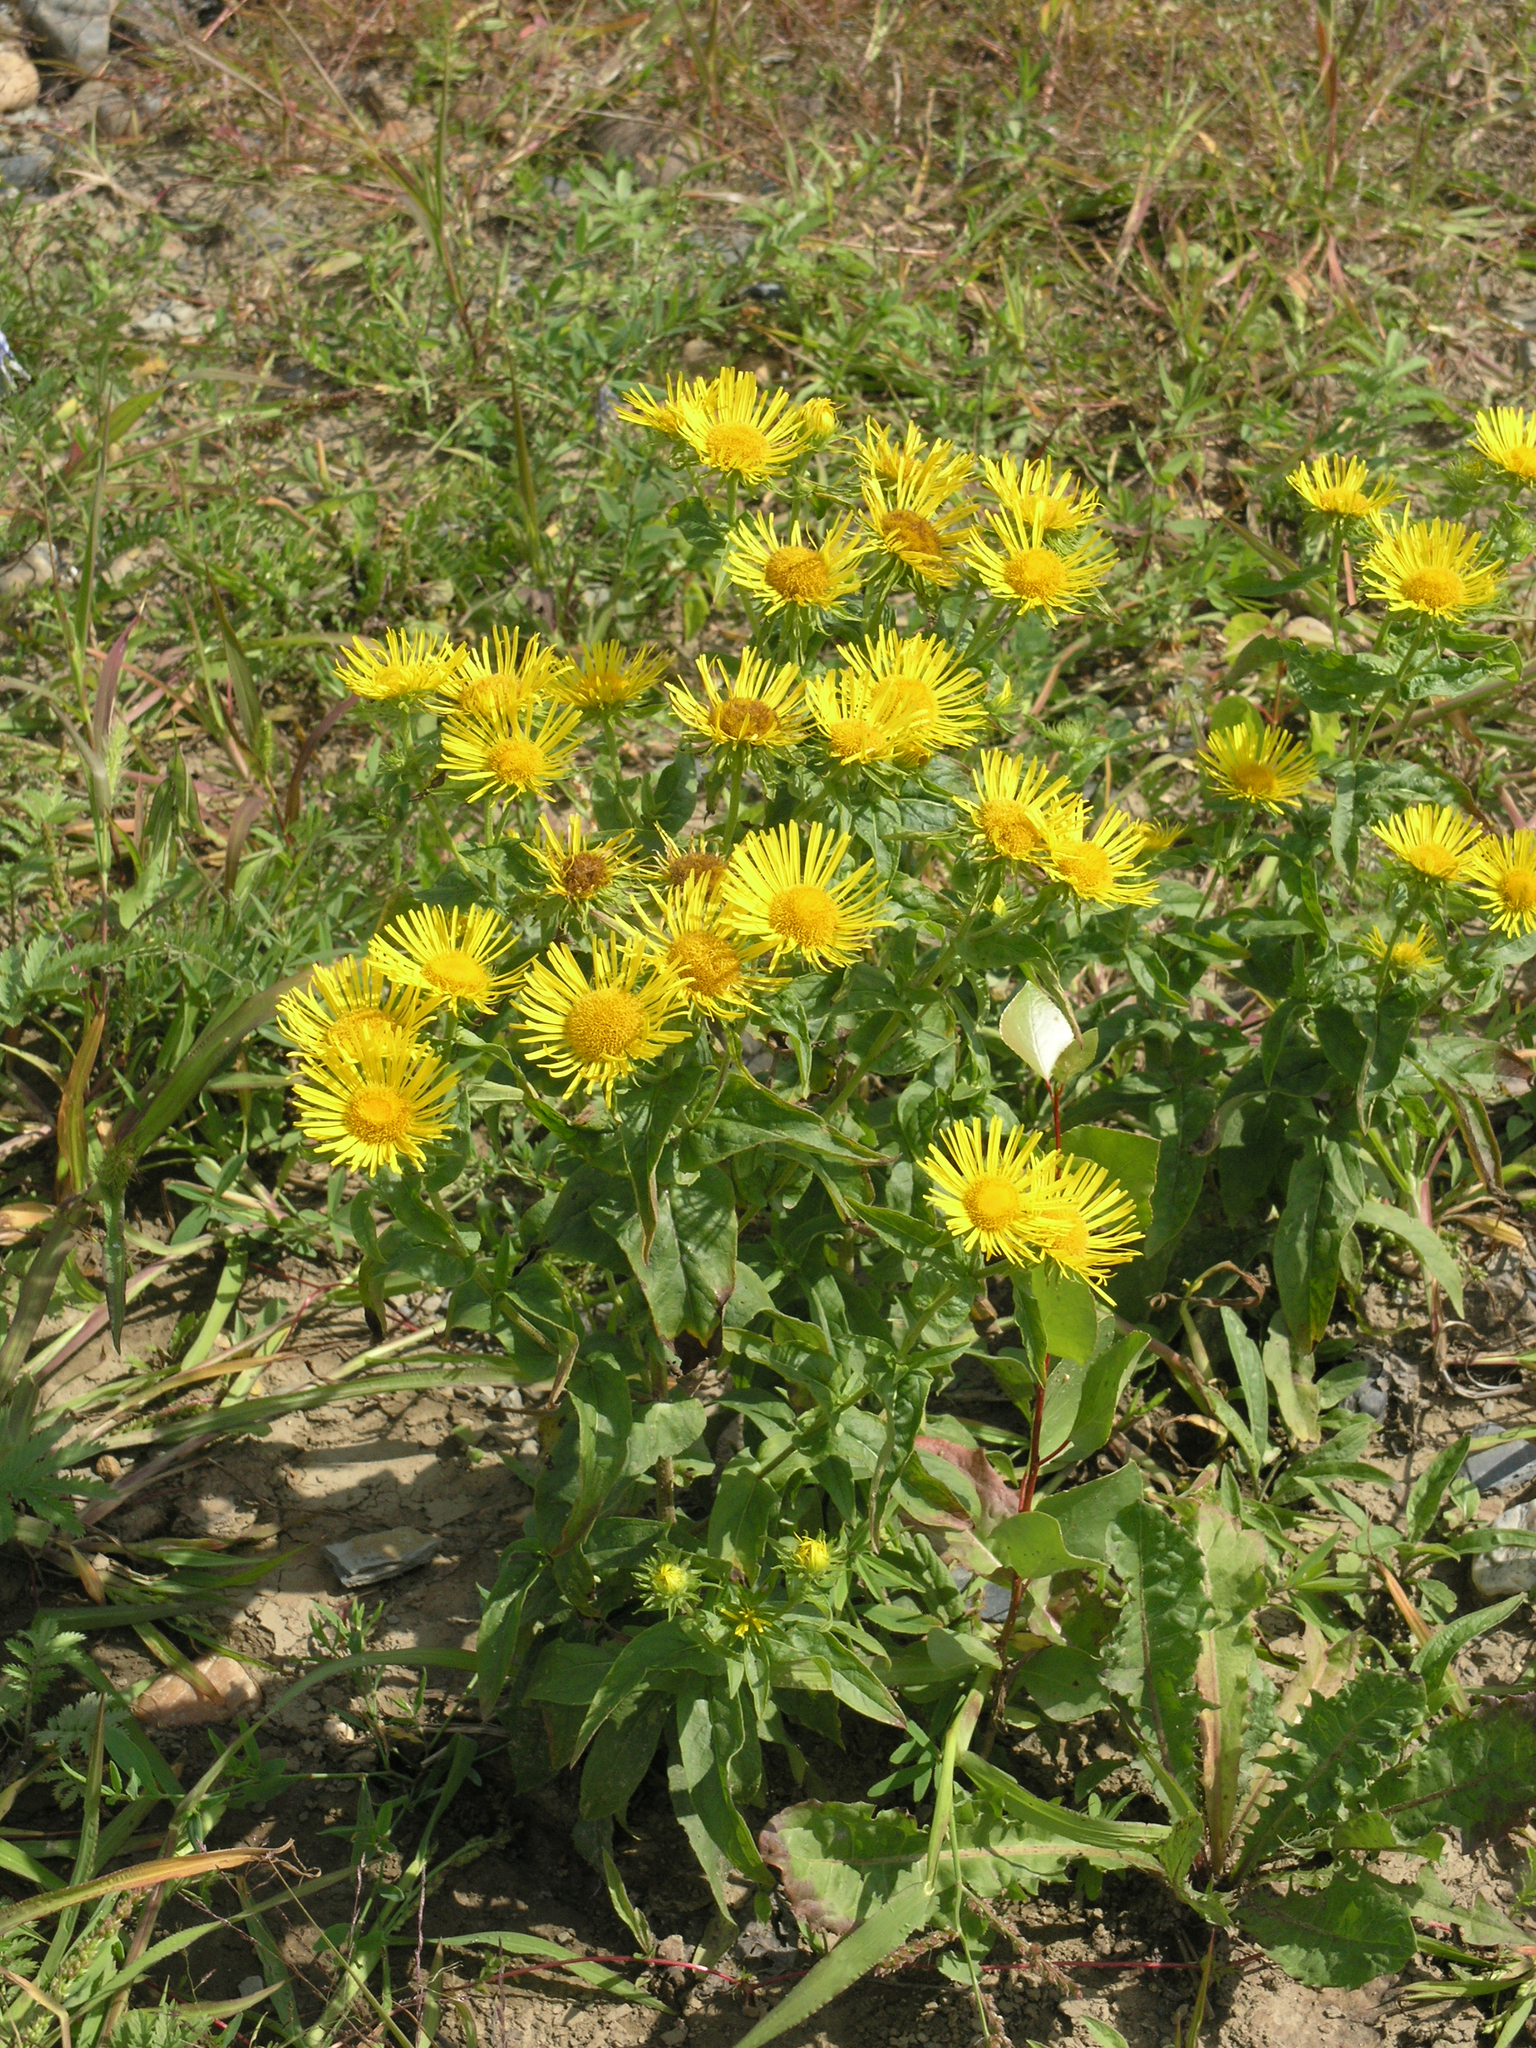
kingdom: Plantae
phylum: Tracheophyta
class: Magnoliopsida
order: Asterales
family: Asteraceae
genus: Pentanema
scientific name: Pentanema britannicum
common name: British elecampane
